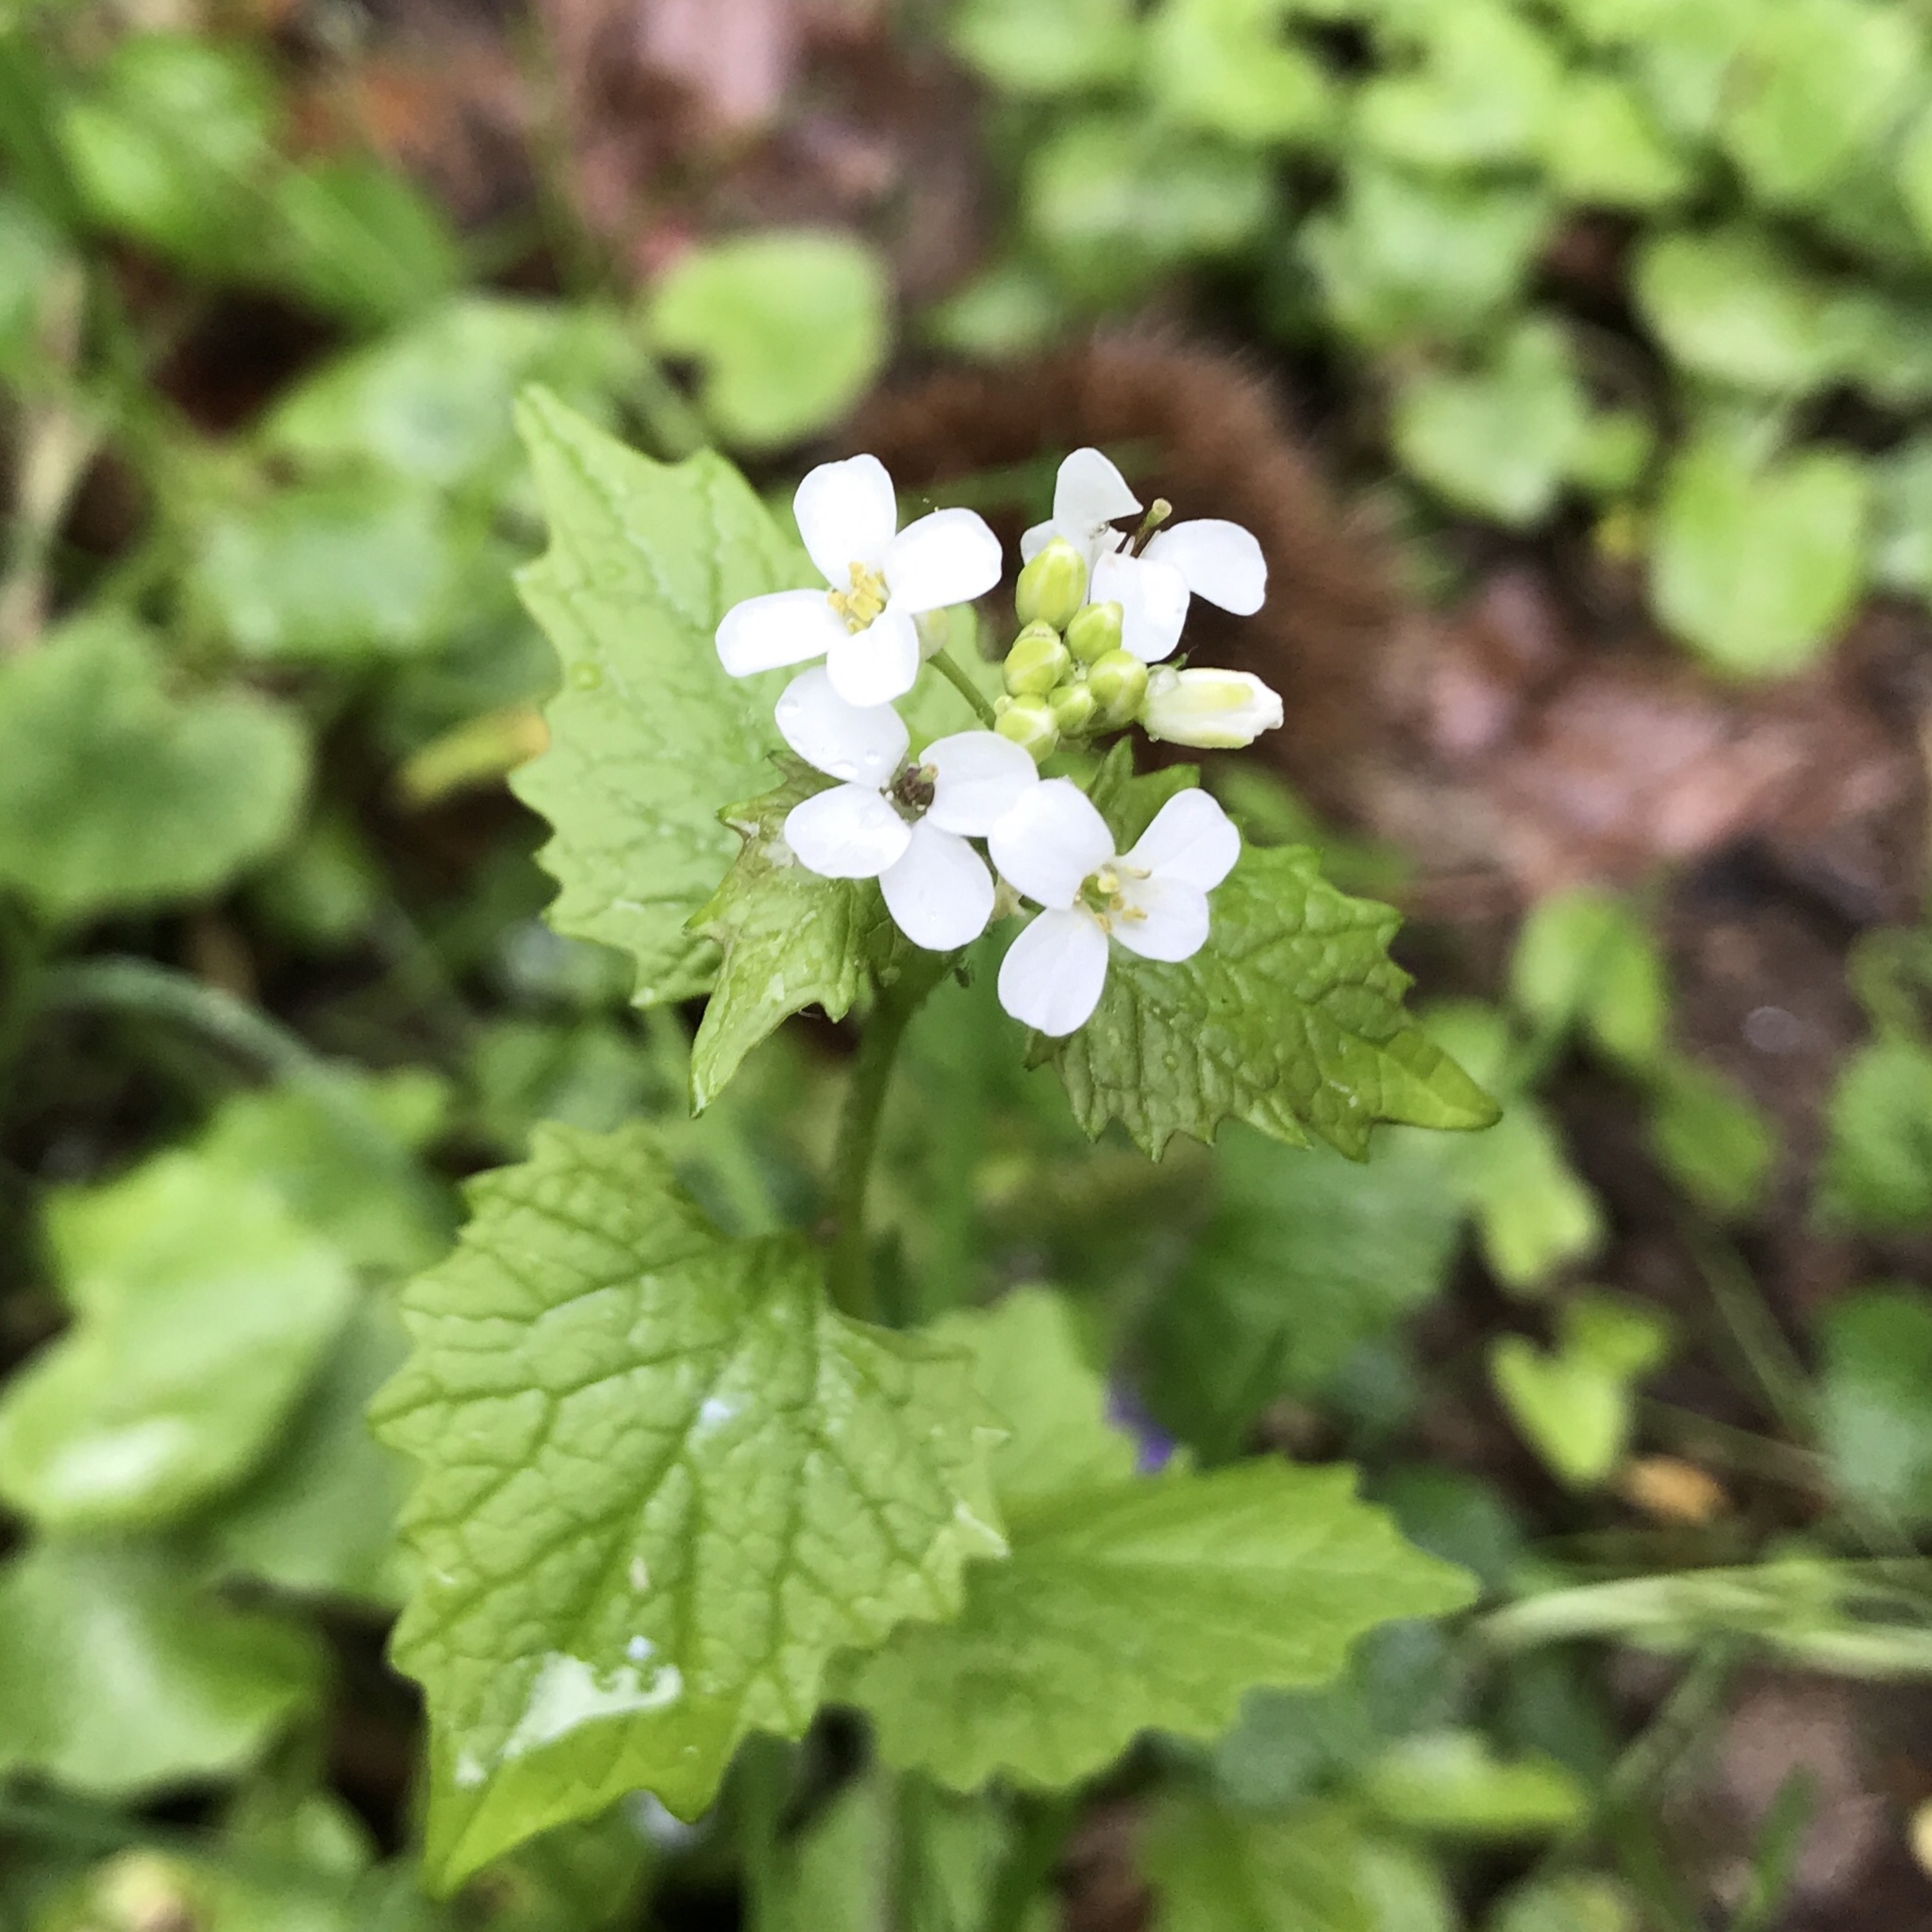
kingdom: Plantae
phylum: Tracheophyta
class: Magnoliopsida
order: Brassicales
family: Brassicaceae
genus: Alliaria
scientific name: Alliaria petiolata
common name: Garlic mustard
